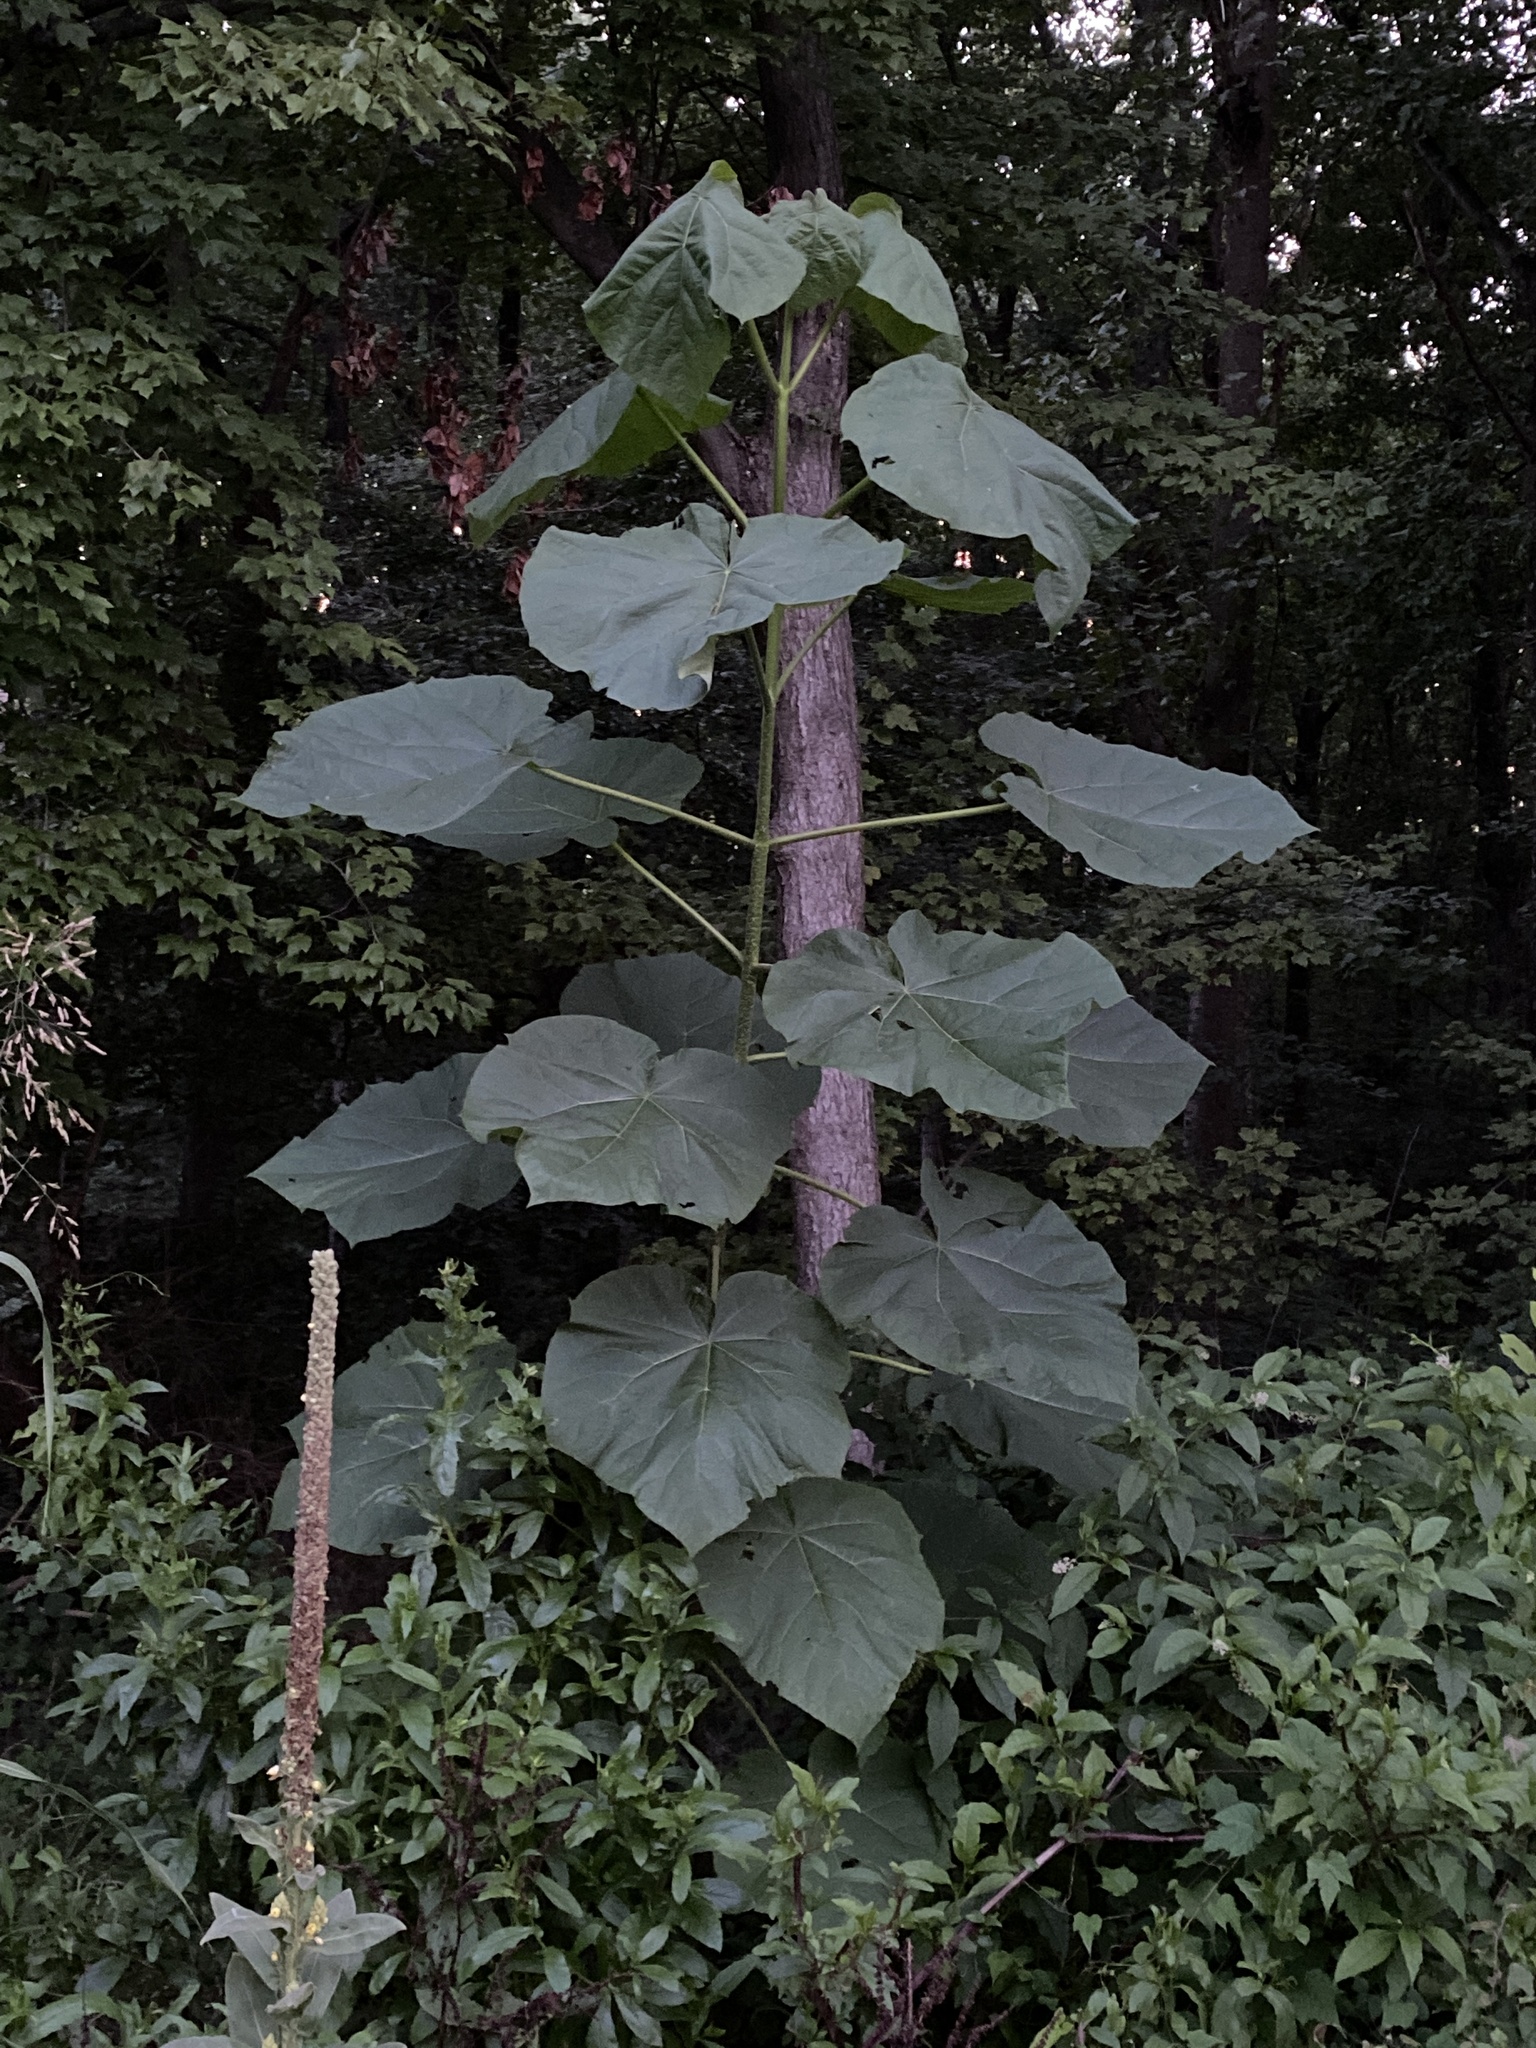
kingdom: Plantae
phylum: Tracheophyta
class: Magnoliopsida
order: Lamiales
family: Paulowniaceae
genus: Paulownia
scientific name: Paulownia tomentosa
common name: Foxglove-tree
